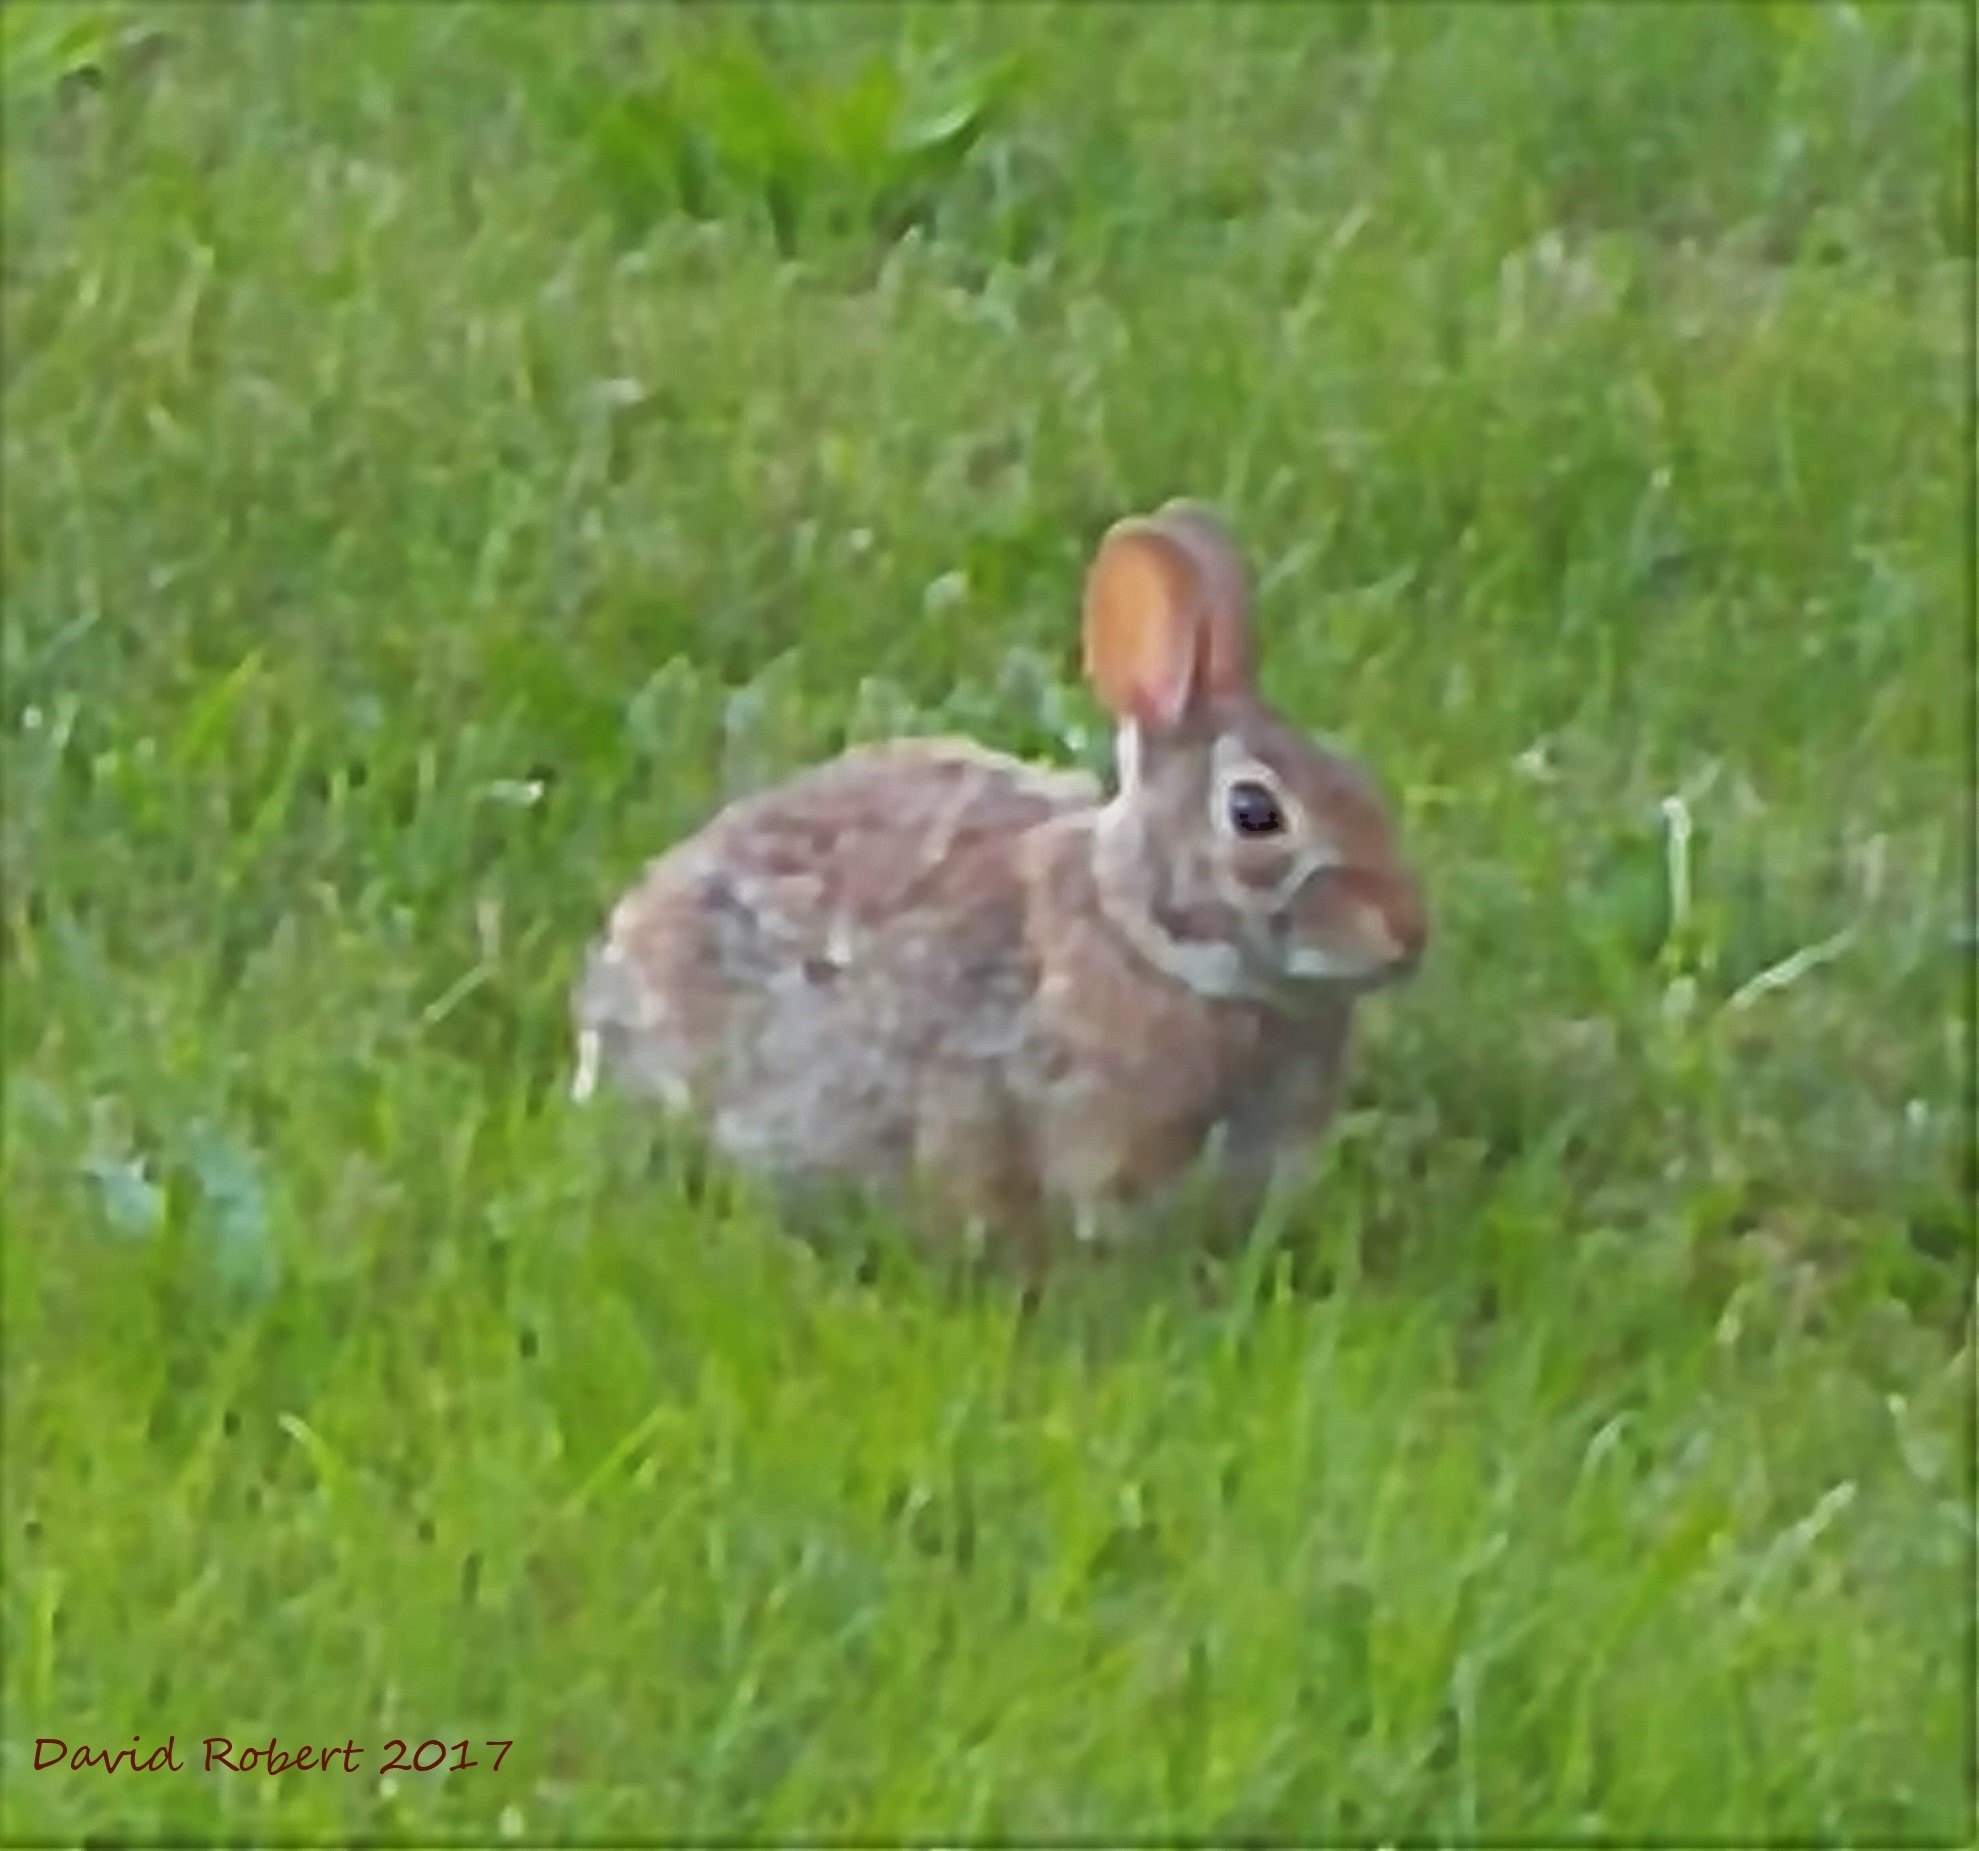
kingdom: Animalia
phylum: Chordata
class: Mammalia
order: Lagomorpha
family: Leporidae
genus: Sylvilagus
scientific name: Sylvilagus floridanus
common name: Eastern cottontail
